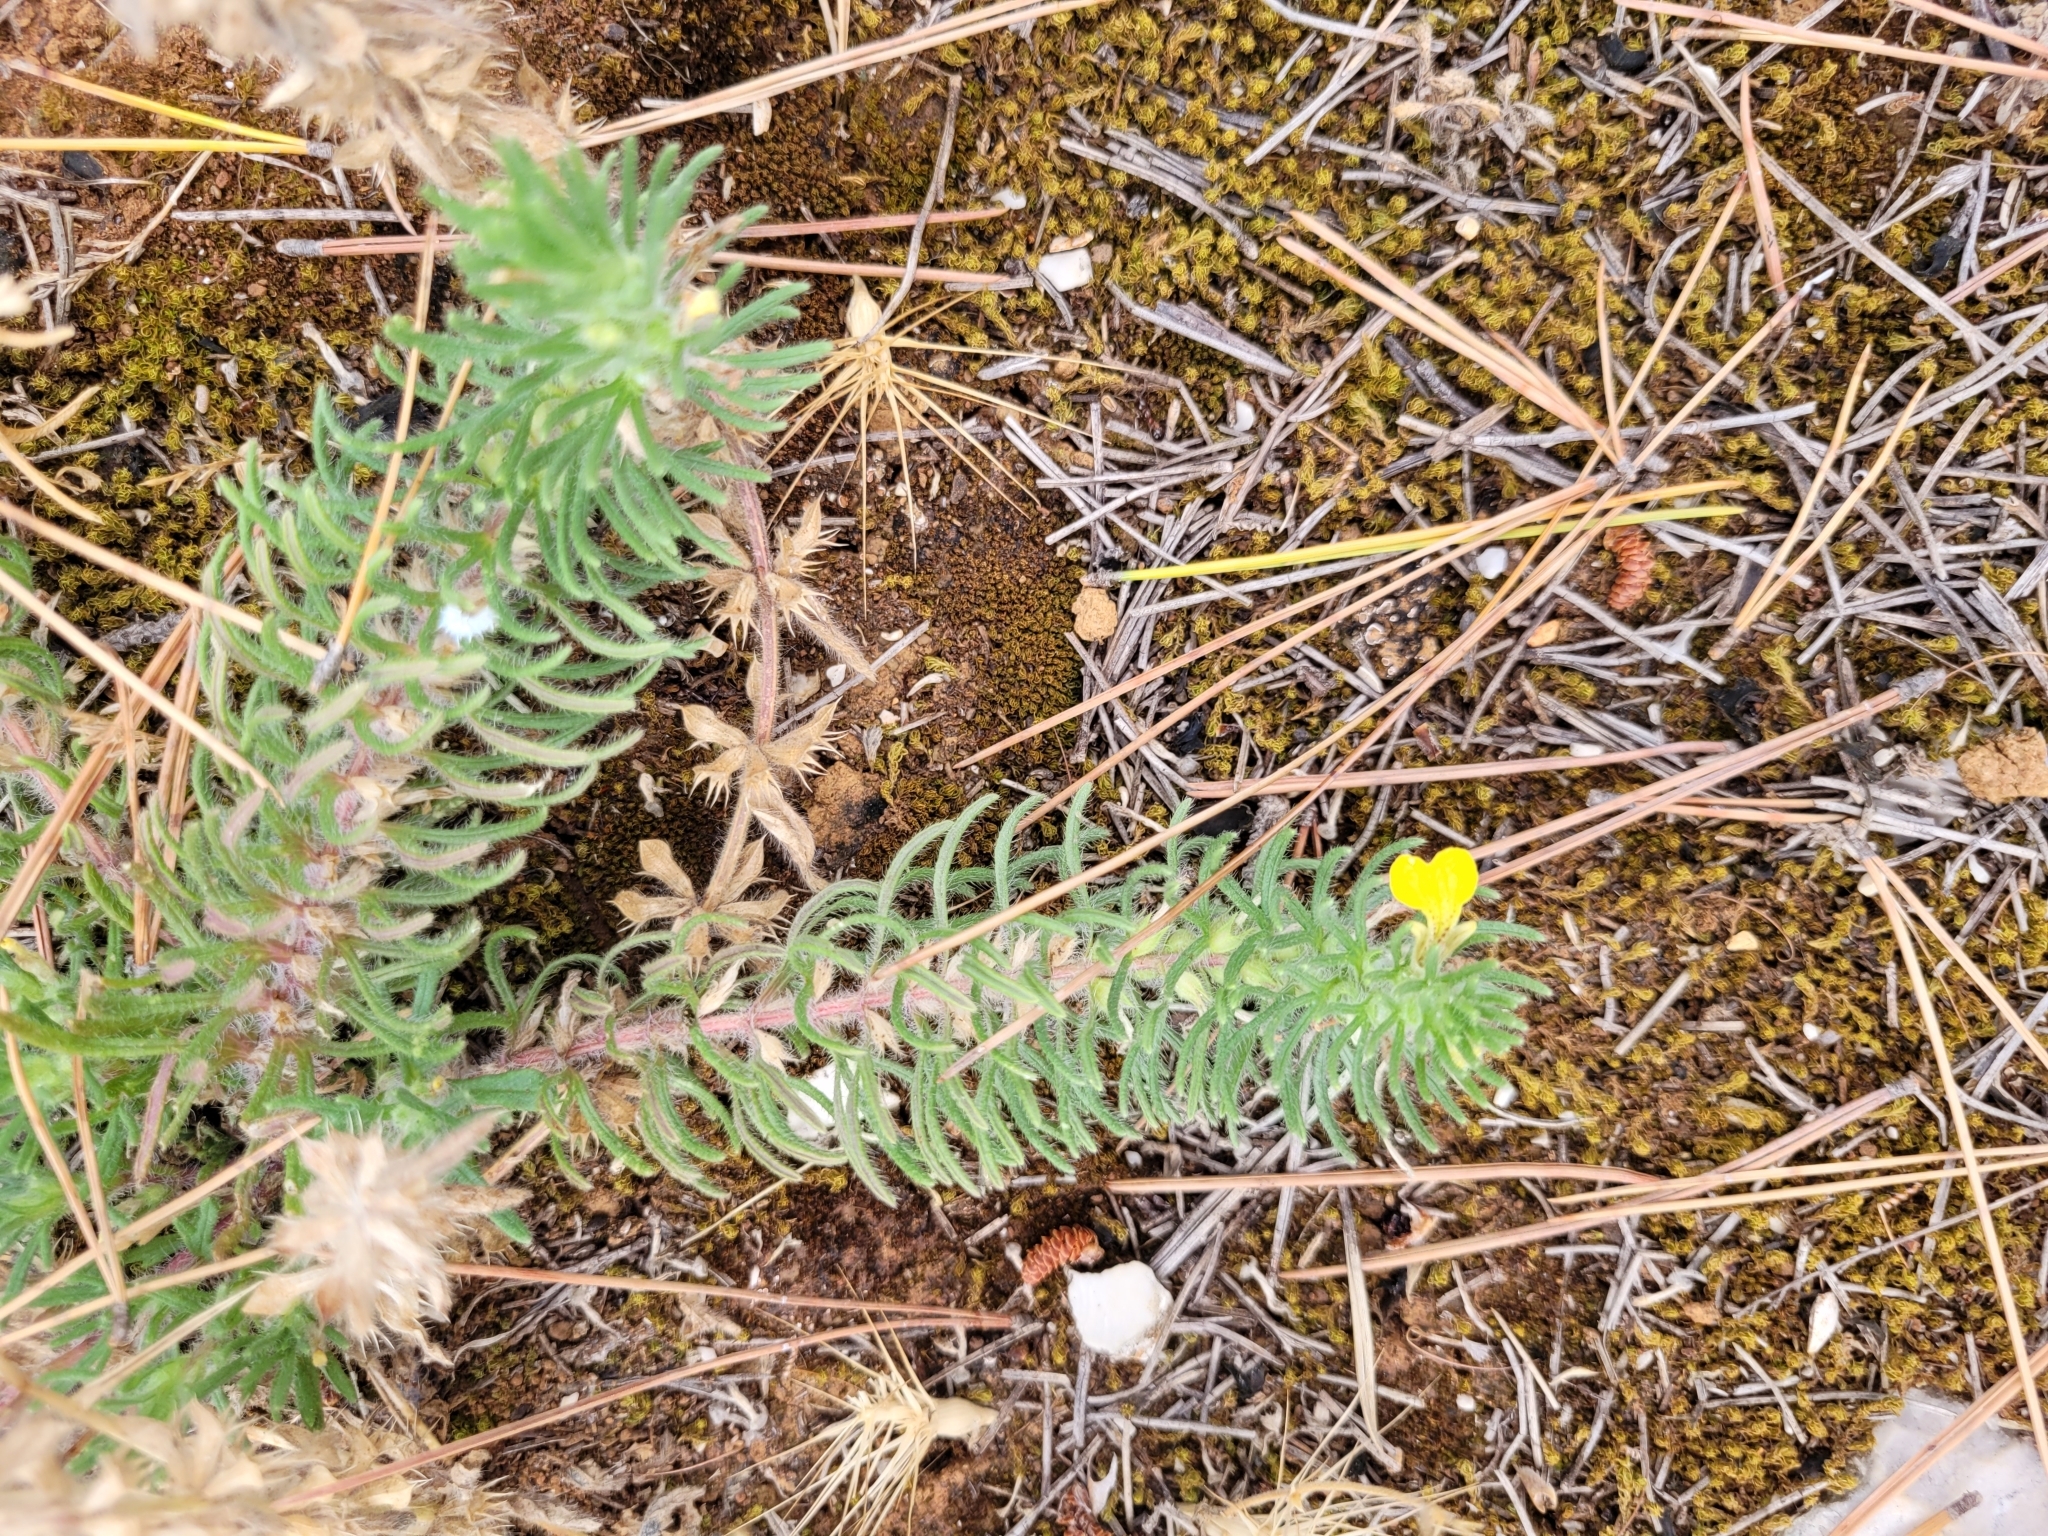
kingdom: Plantae
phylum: Tracheophyta
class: Magnoliopsida
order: Lamiales
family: Lamiaceae
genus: Ajuga
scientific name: Ajuga chamaepitys
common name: Ground-pine
